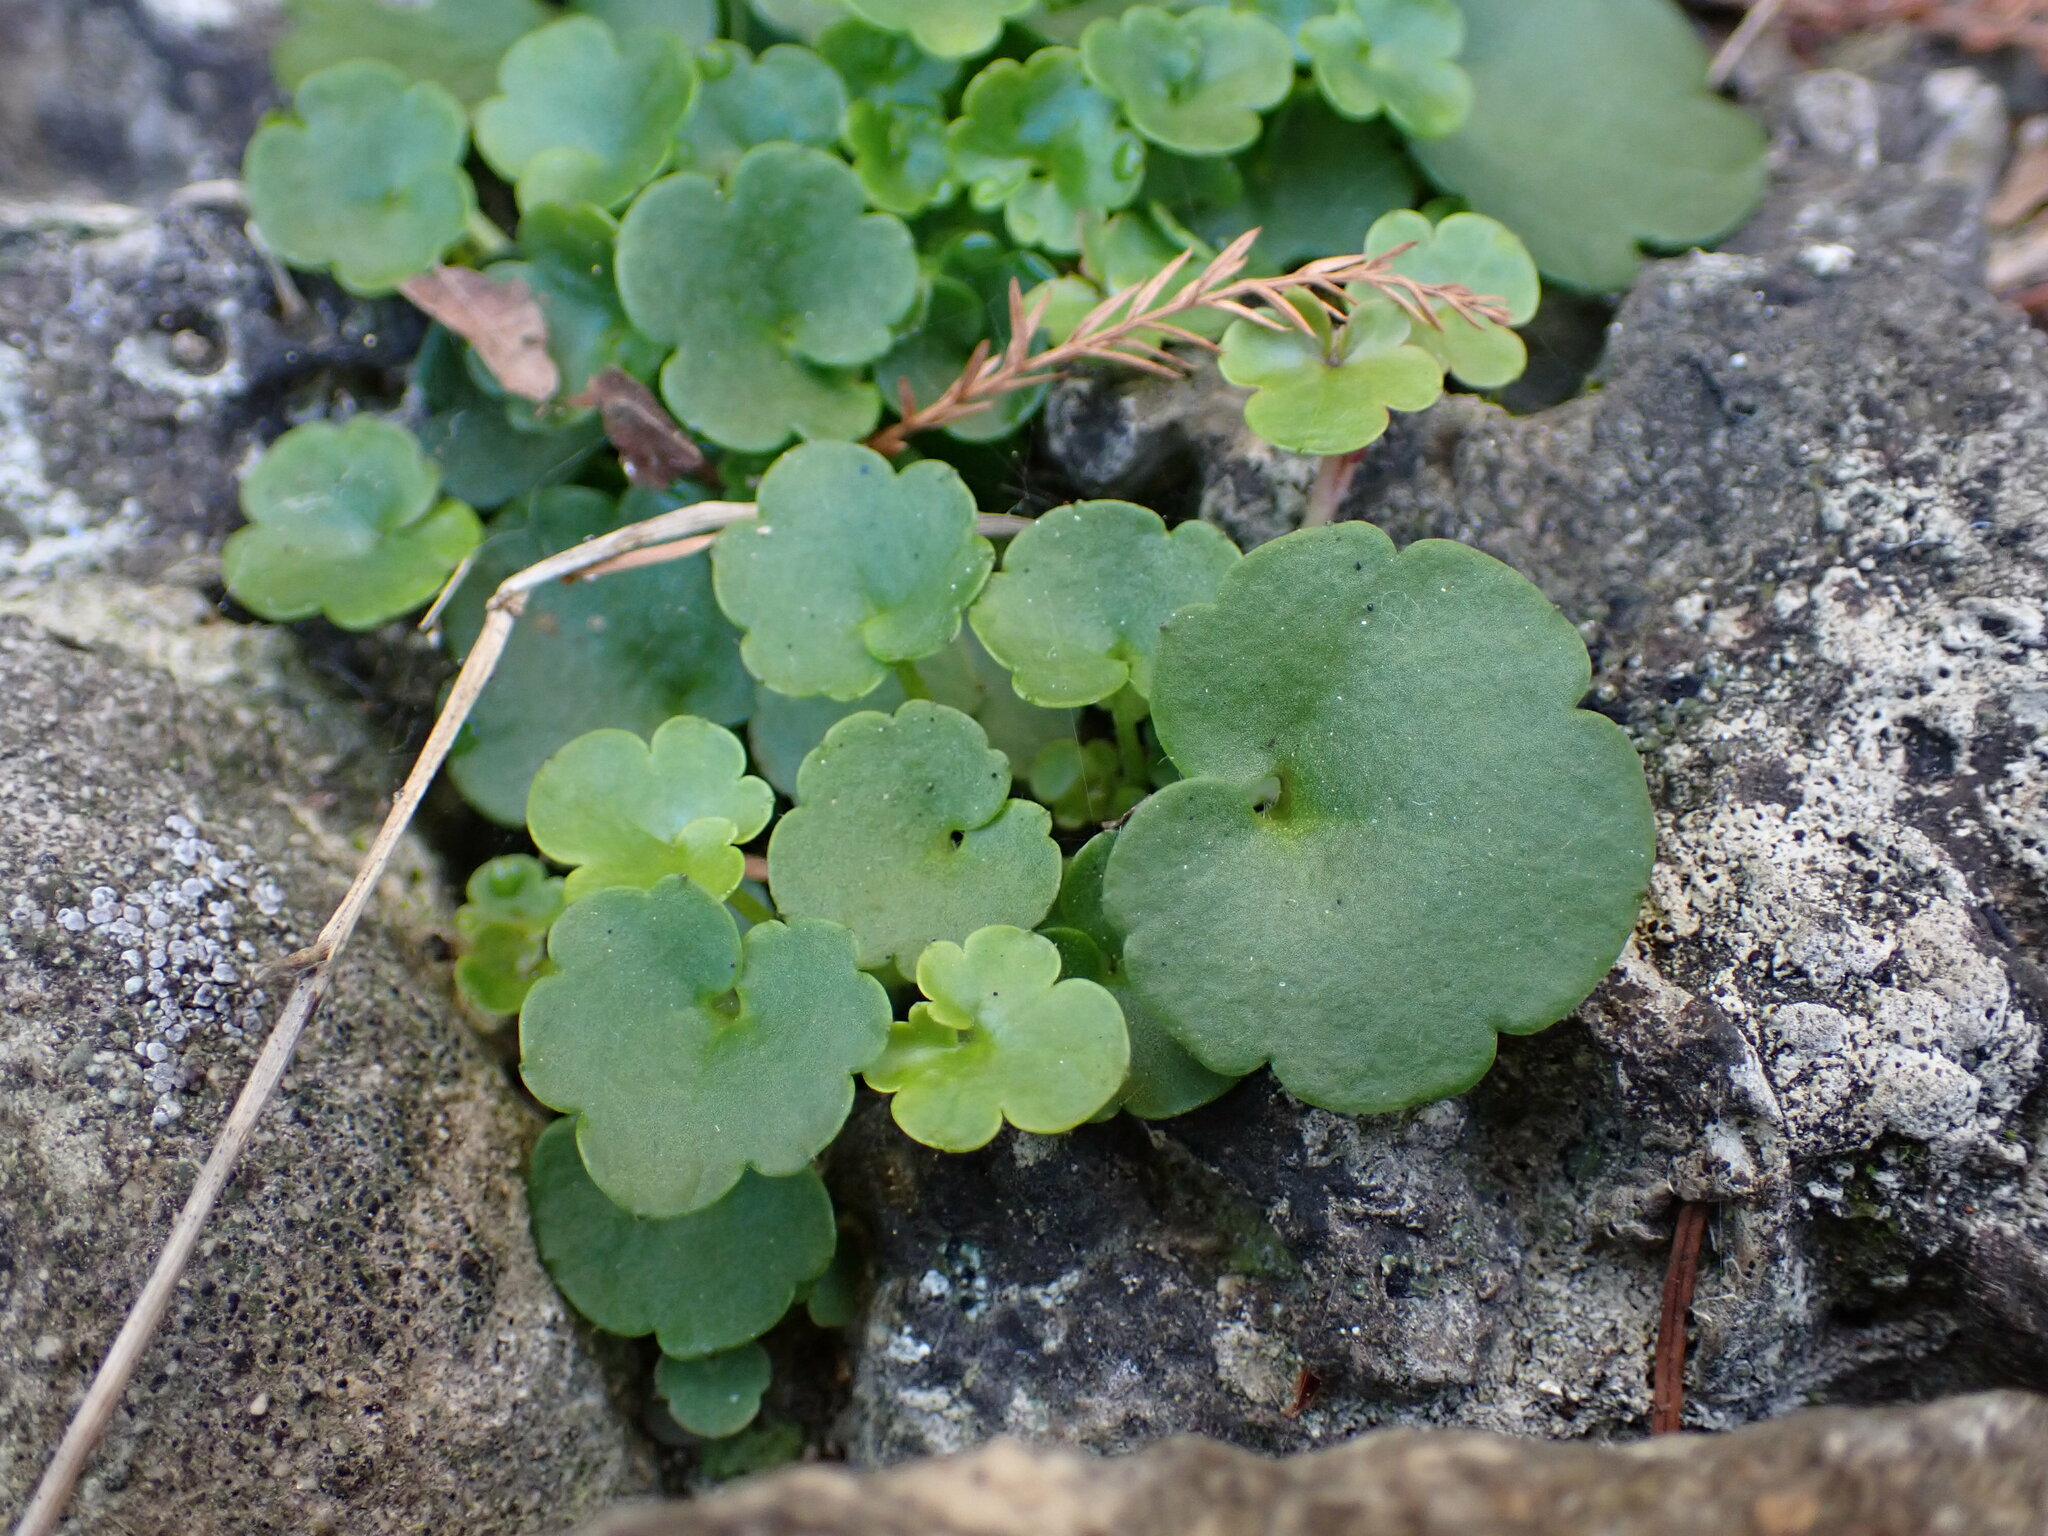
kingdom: Plantae
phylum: Tracheophyta
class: Magnoliopsida
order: Lamiales
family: Plantaginaceae
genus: Cymbalaria
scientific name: Cymbalaria muralis
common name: Ivy-leaved toadflax
